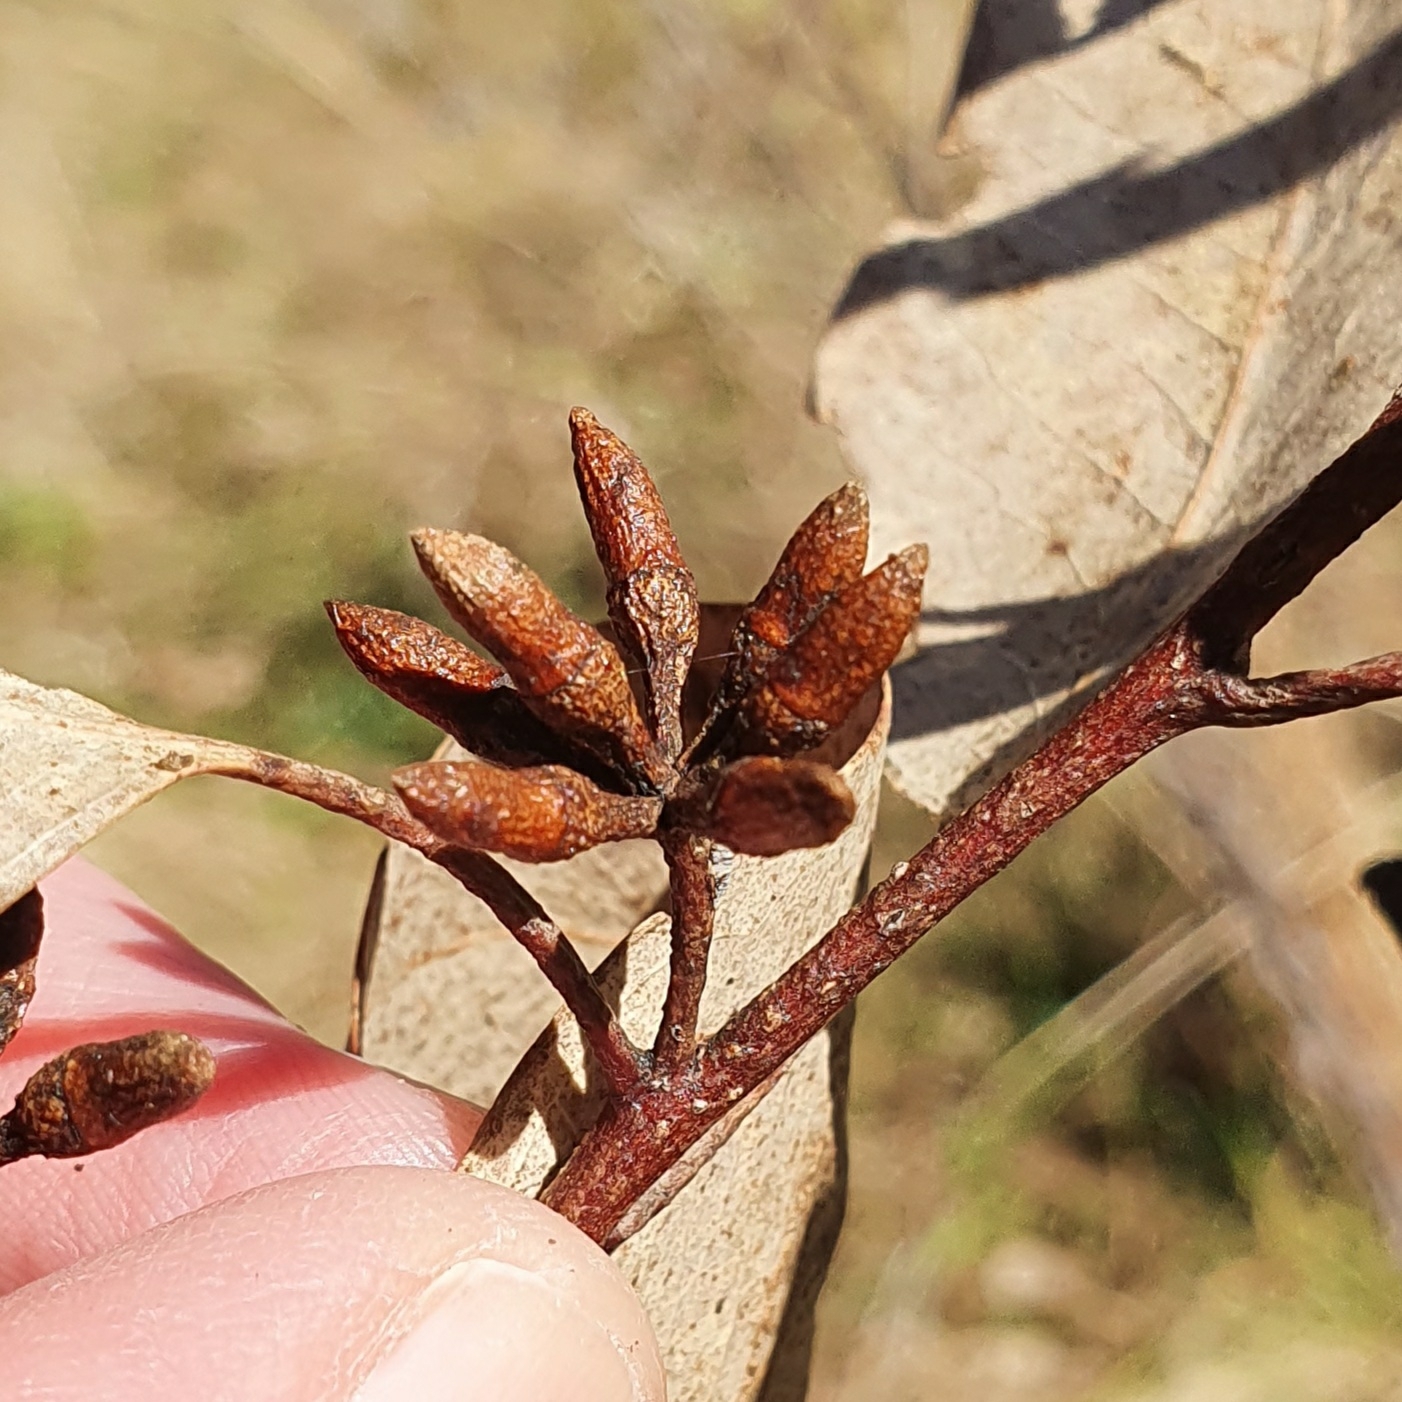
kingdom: Plantae
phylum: Tracheophyta
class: Magnoliopsida
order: Myrtales
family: Myrtaceae
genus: Eucalyptus
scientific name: Eucalyptus blakelyi
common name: Blakely's-red-gum
